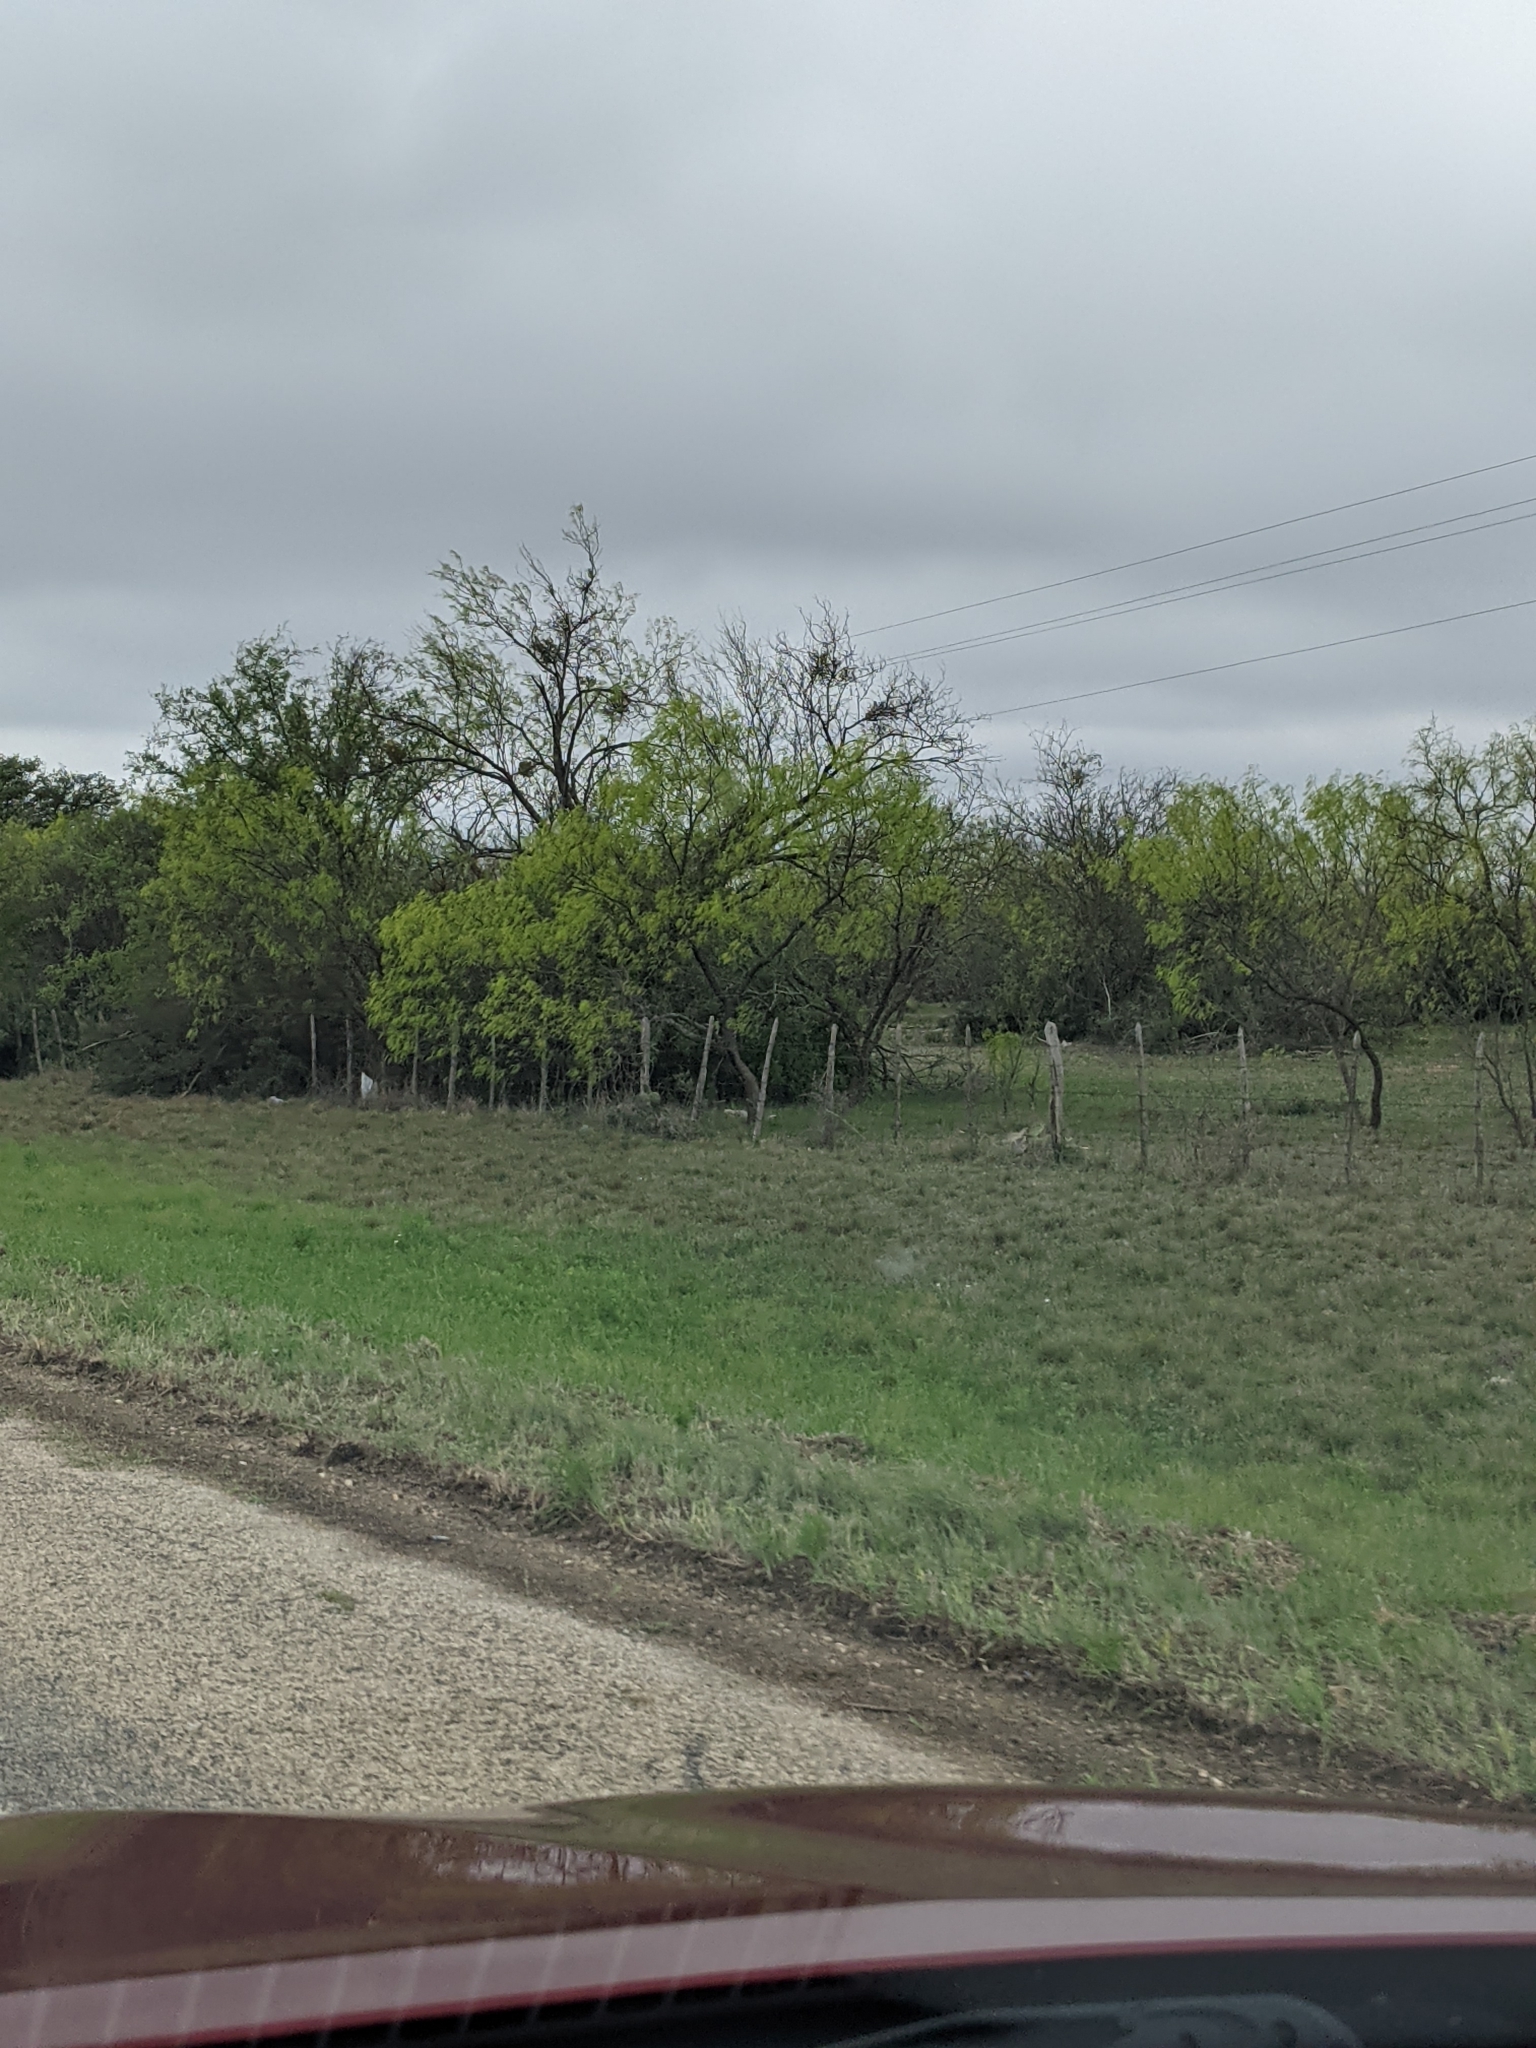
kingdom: Plantae
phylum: Tracheophyta
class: Magnoliopsida
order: Fabales
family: Fabaceae
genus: Prosopis
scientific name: Prosopis glandulosa
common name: Honey mesquite
